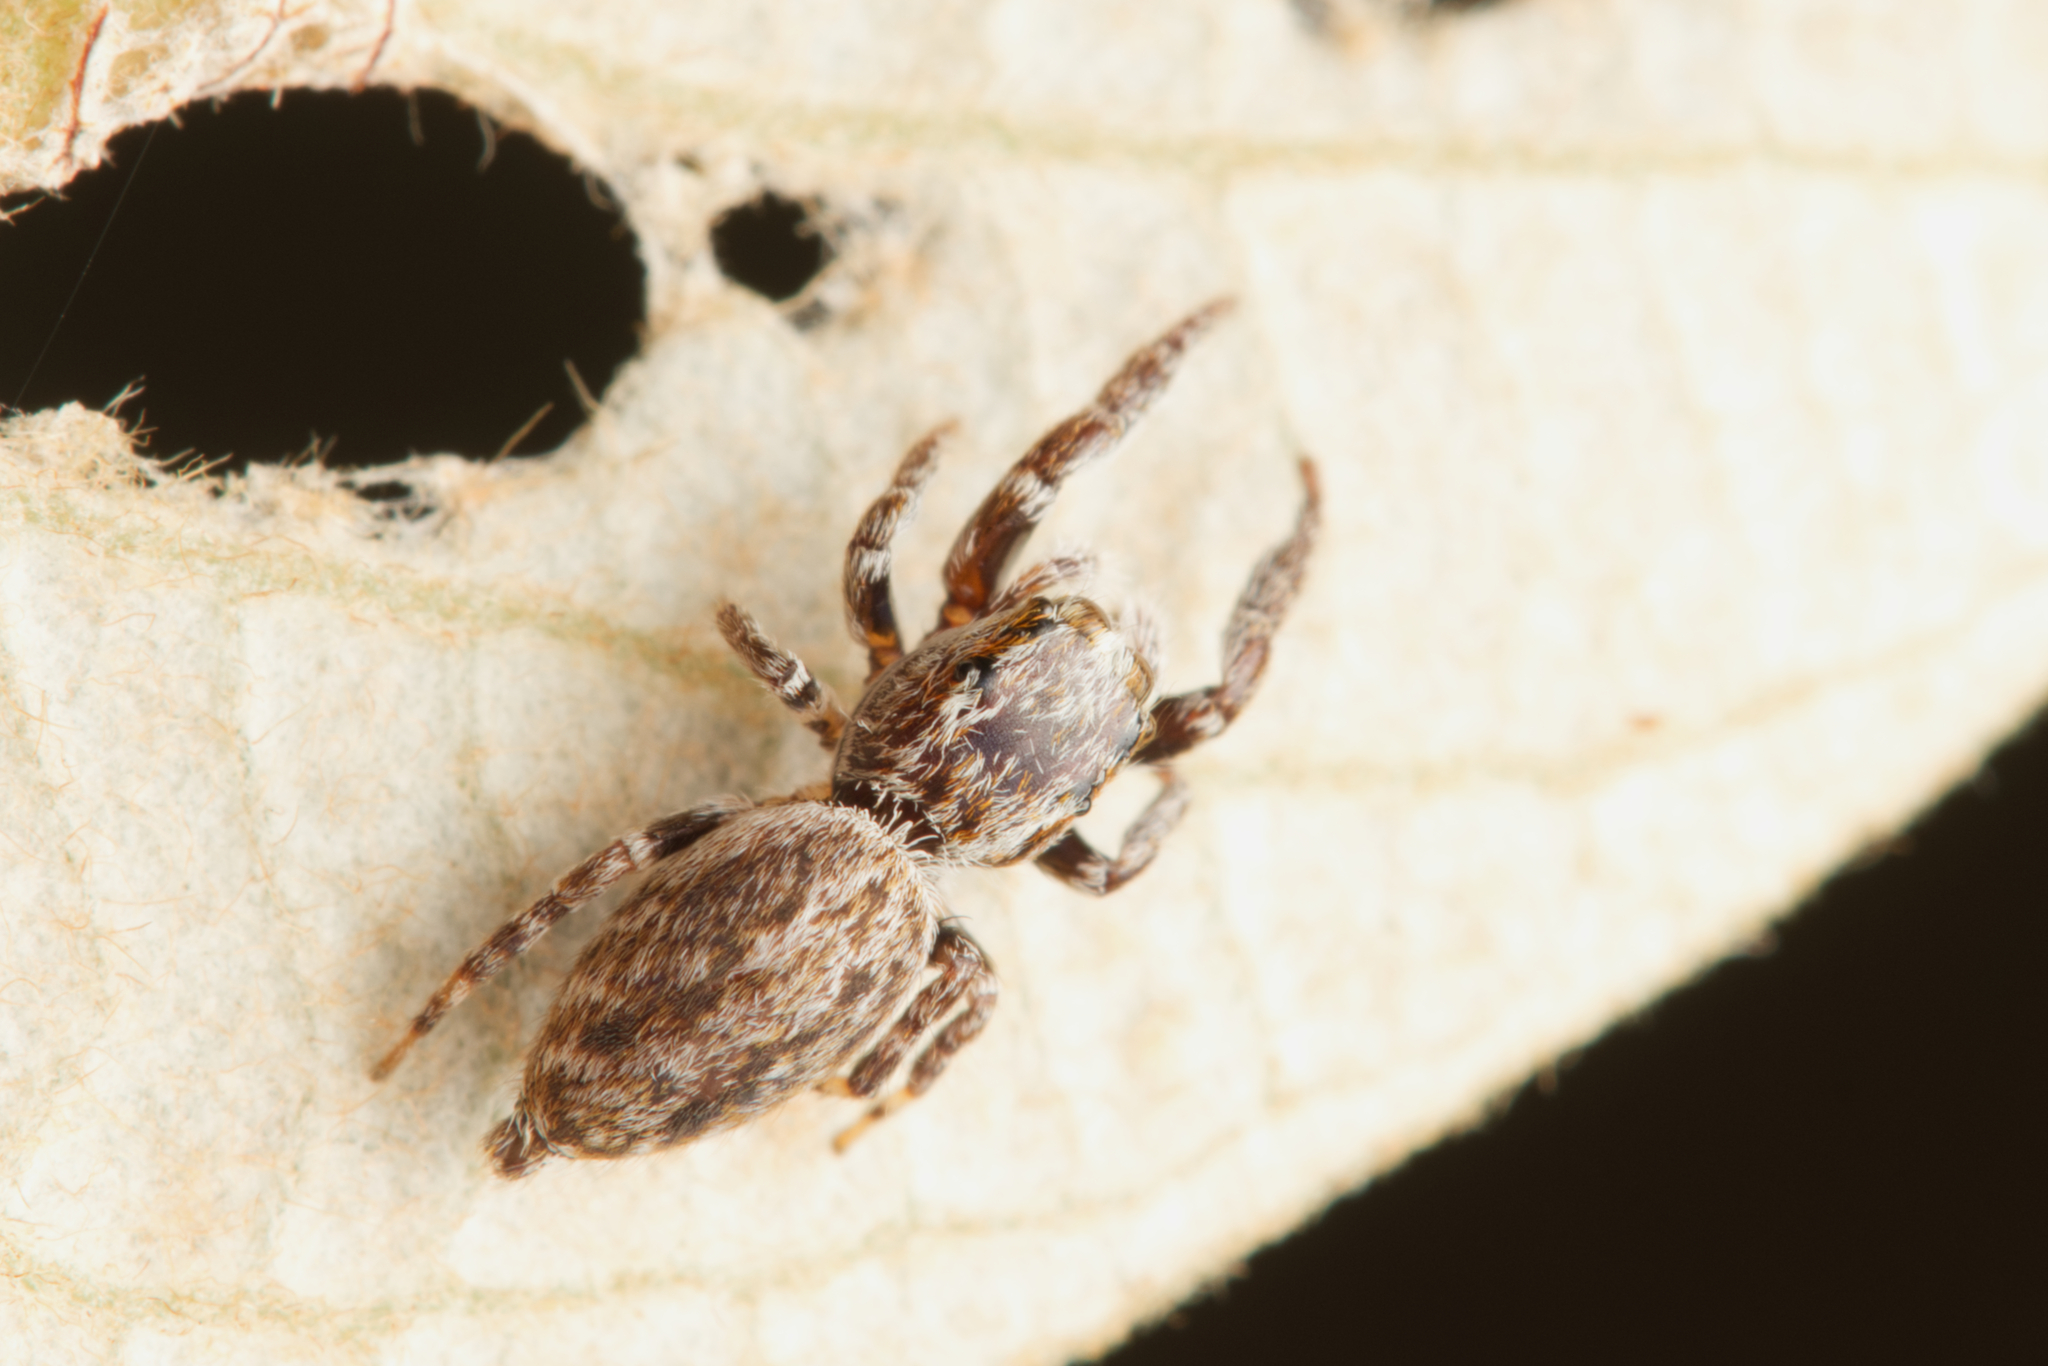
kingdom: Animalia
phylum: Arthropoda
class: Arachnida
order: Araneae
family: Salticidae
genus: Paraphilaeus
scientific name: Paraphilaeus daemeli
